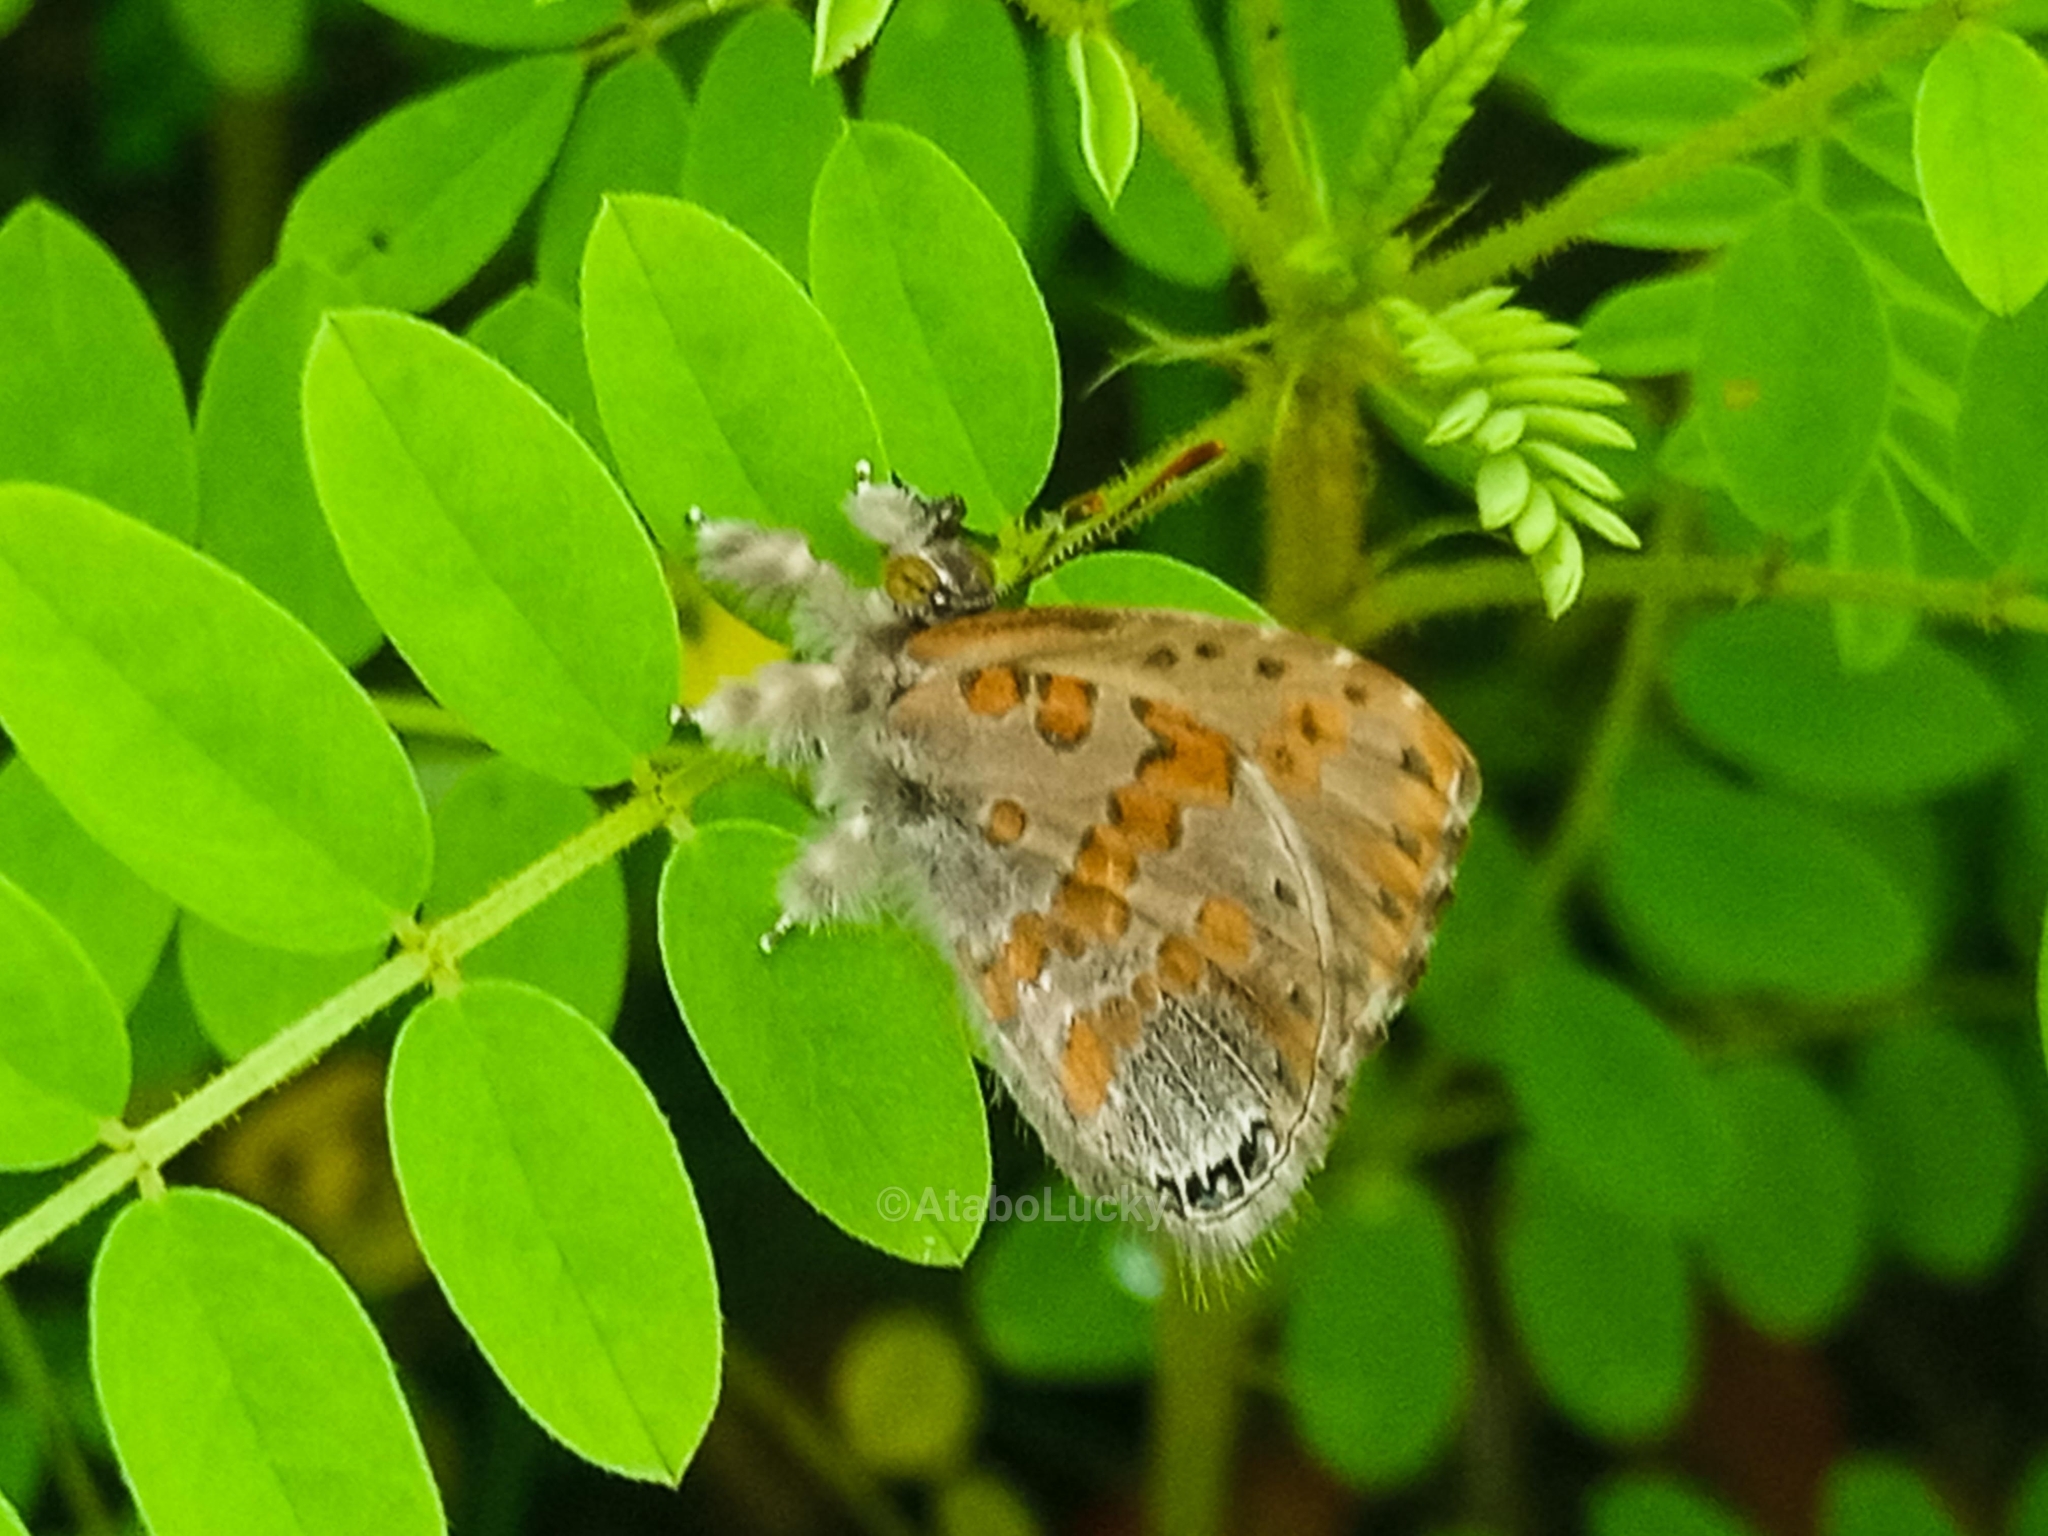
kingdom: Animalia
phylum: Arthropoda
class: Insecta
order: Lepidoptera
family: Lycaenidae
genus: Lachnocnema
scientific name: Lachnocnema
